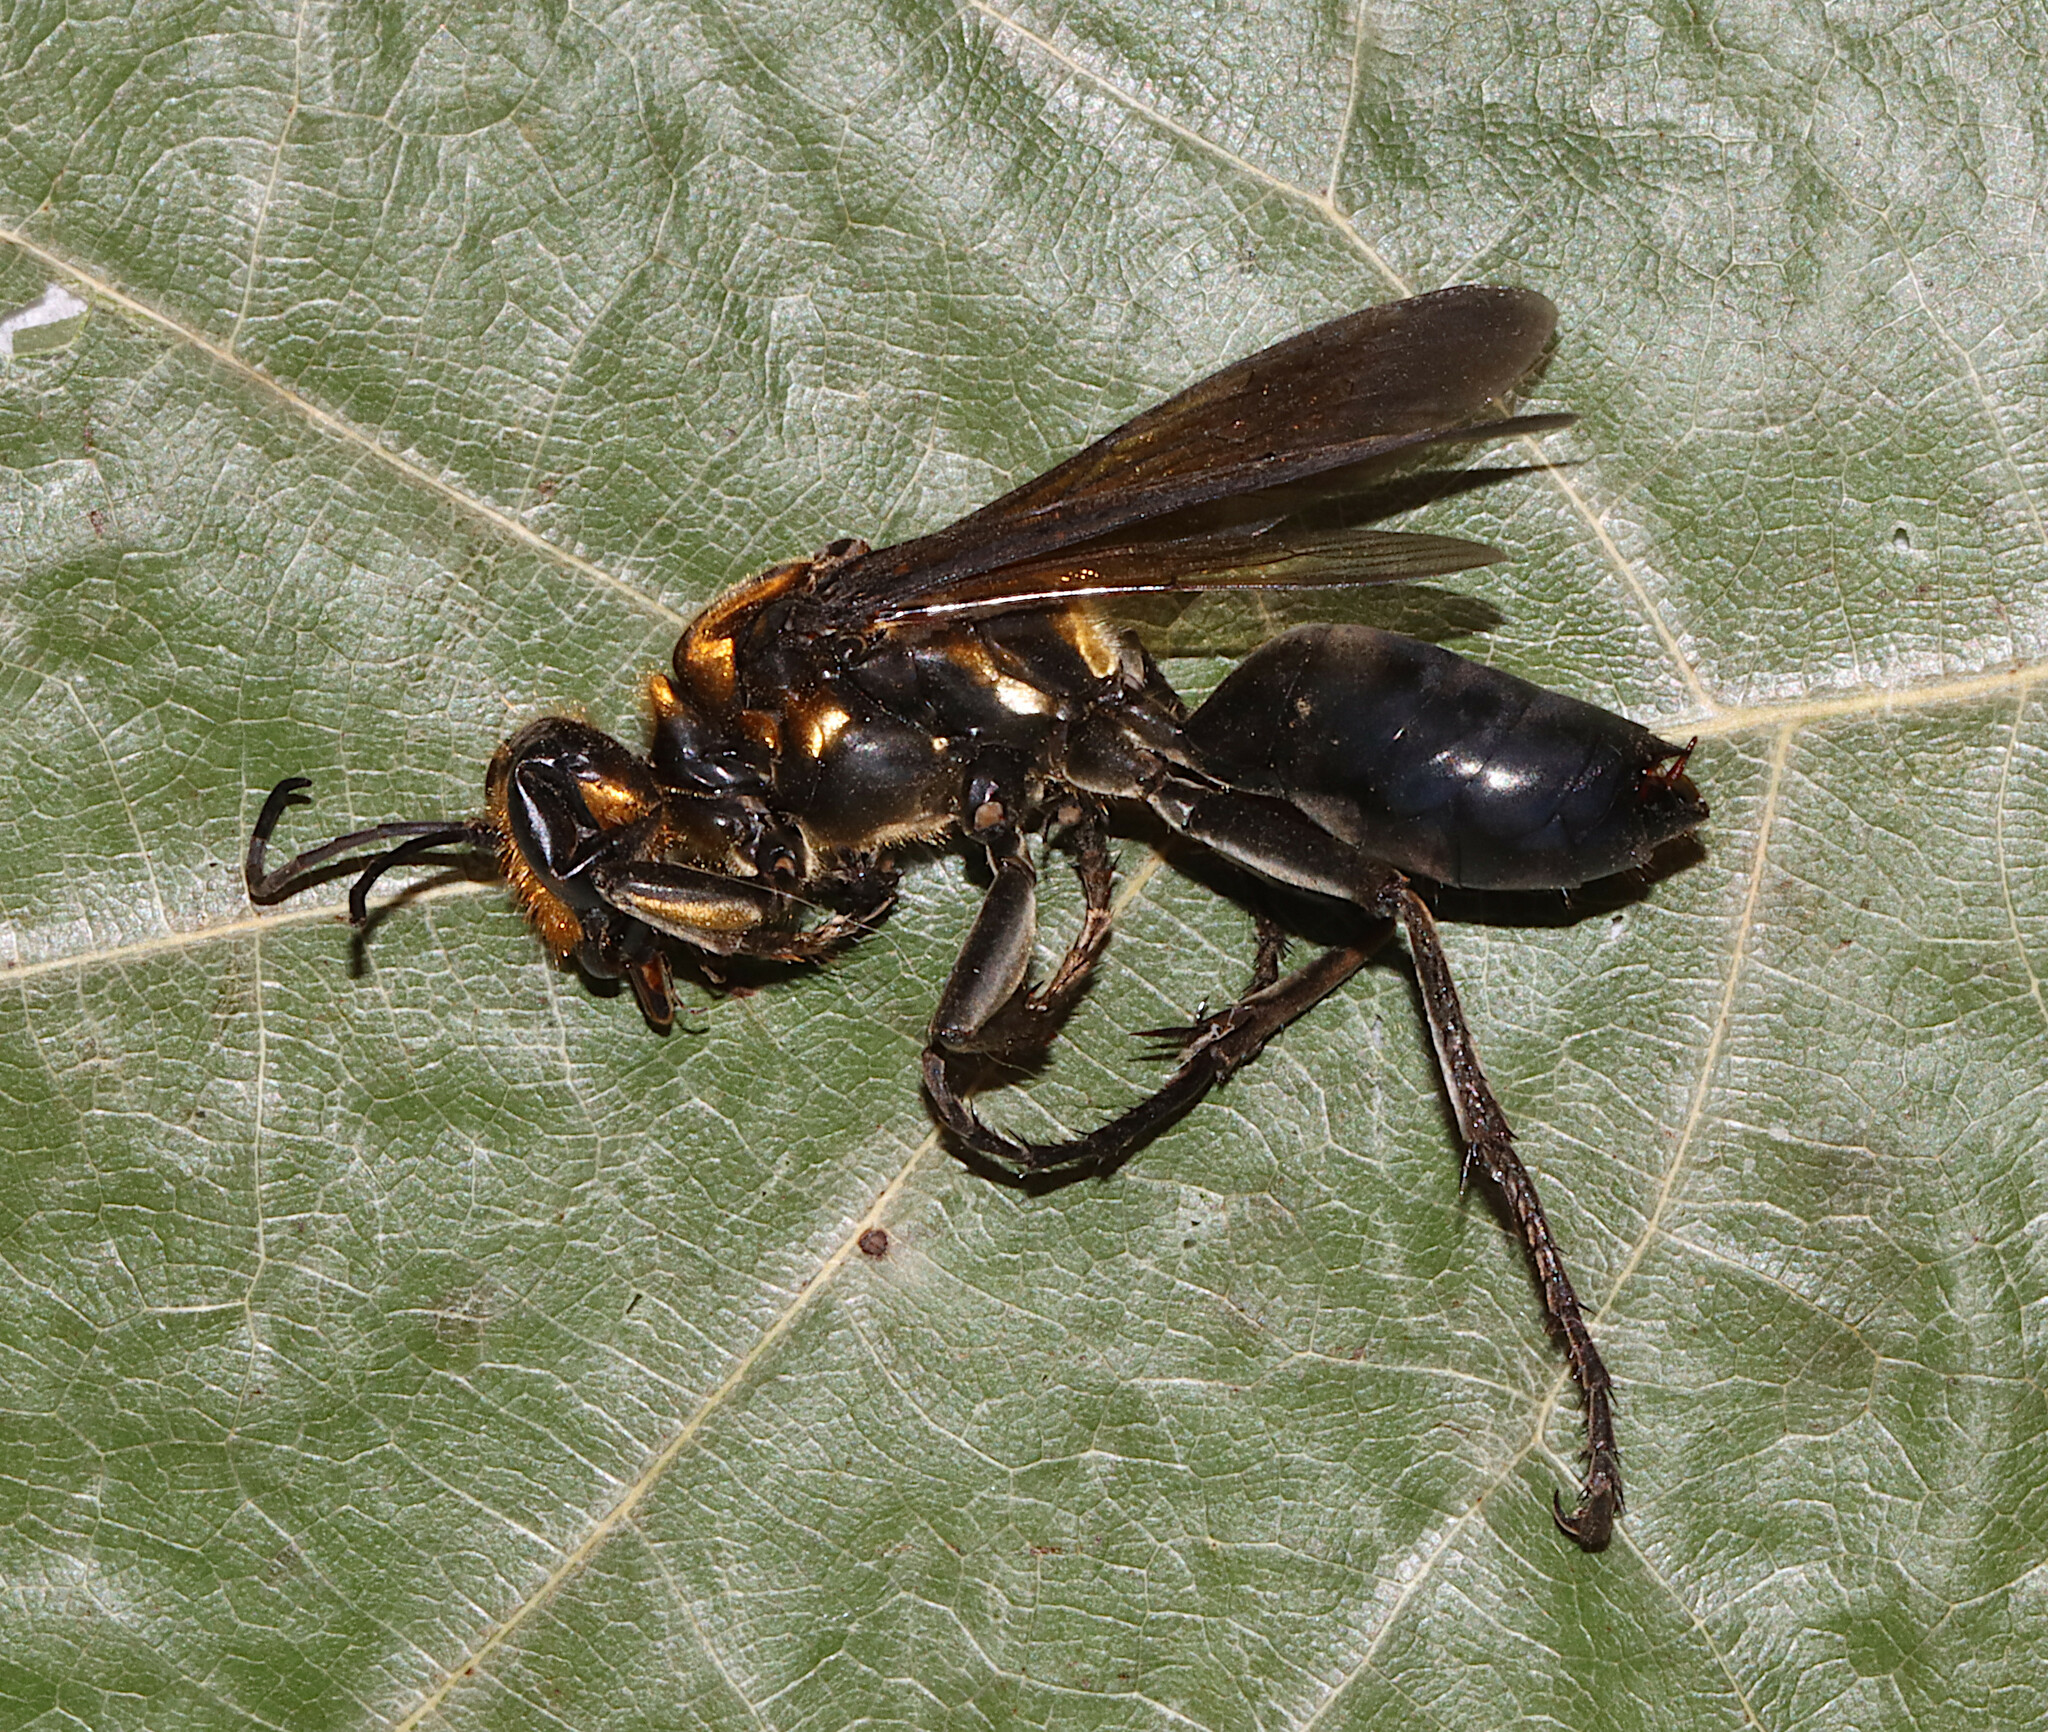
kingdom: Animalia
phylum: Arthropoda
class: Insecta
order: Hymenoptera
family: Sphecidae
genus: Sphex
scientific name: Sphex habenus
